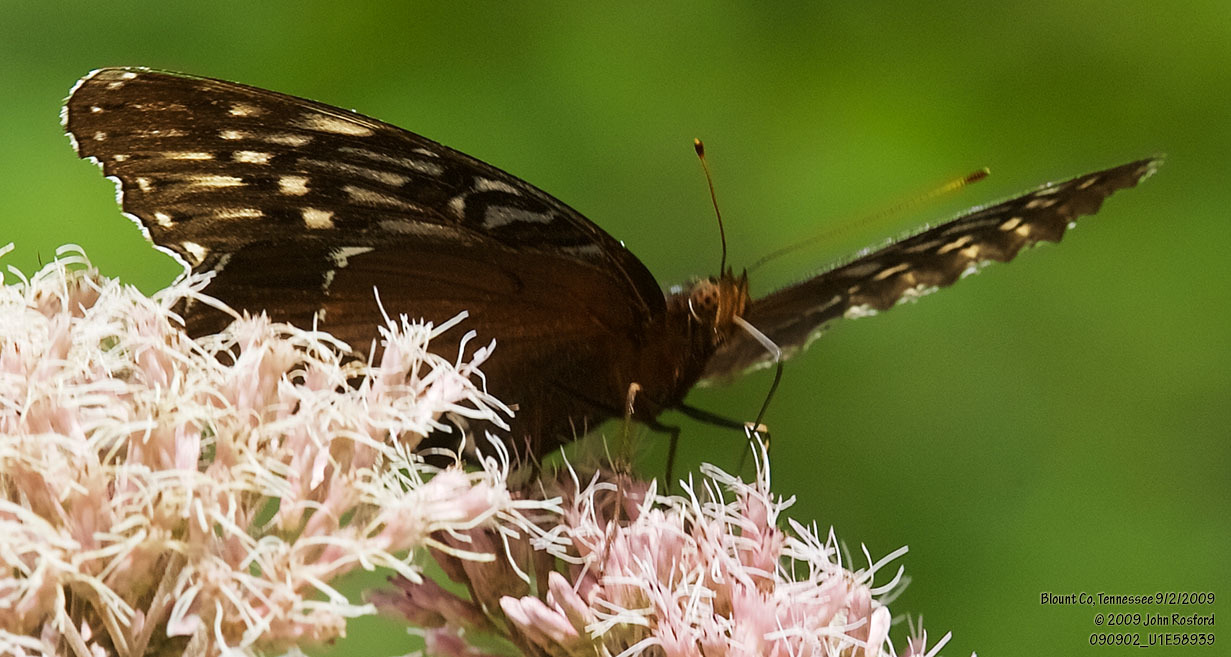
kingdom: Animalia
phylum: Arthropoda
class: Insecta
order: Lepidoptera
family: Nymphalidae
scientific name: Nymphalidae
